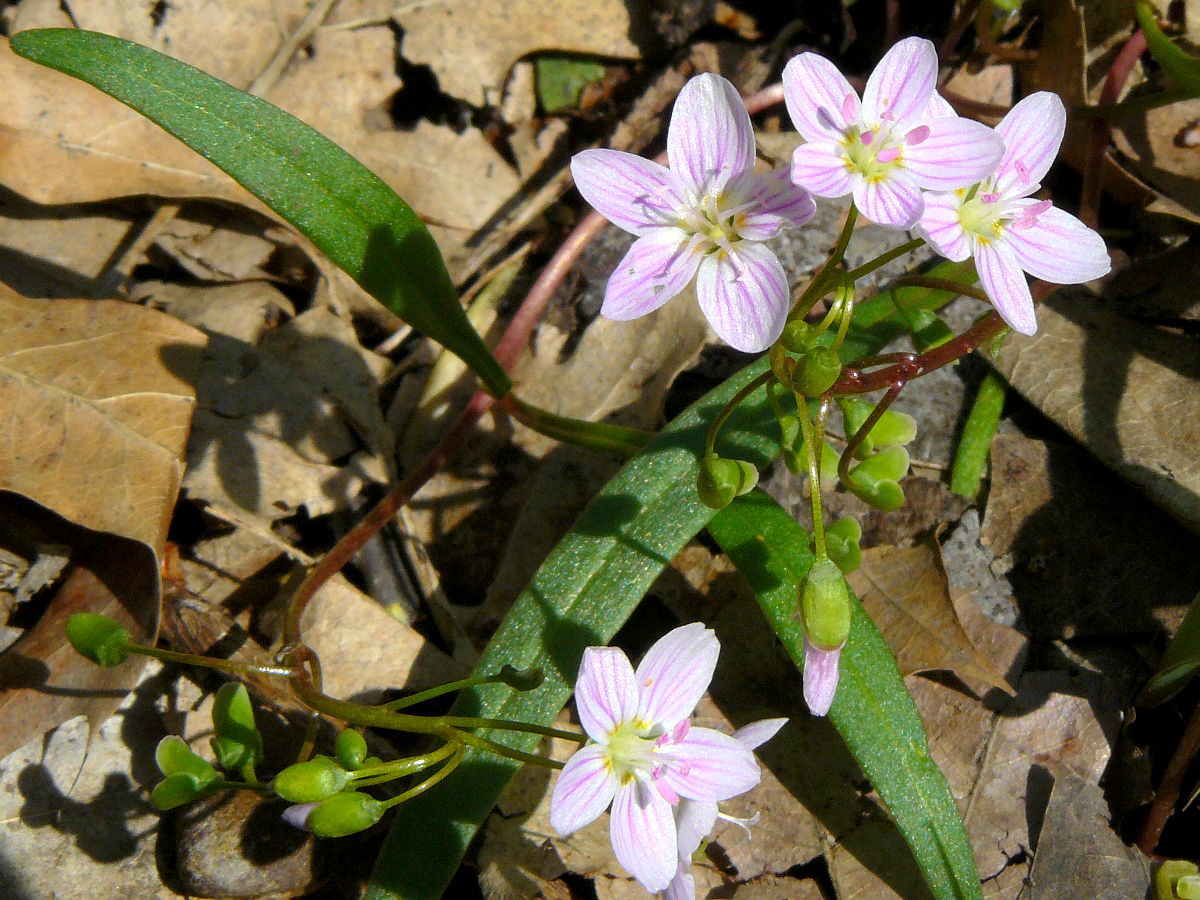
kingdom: Plantae
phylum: Tracheophyta
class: Magnoliopsida
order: Caryophyllales
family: Montiaceae
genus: Claytonia
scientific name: Claytonia virginica
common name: Virginia springbeauty
